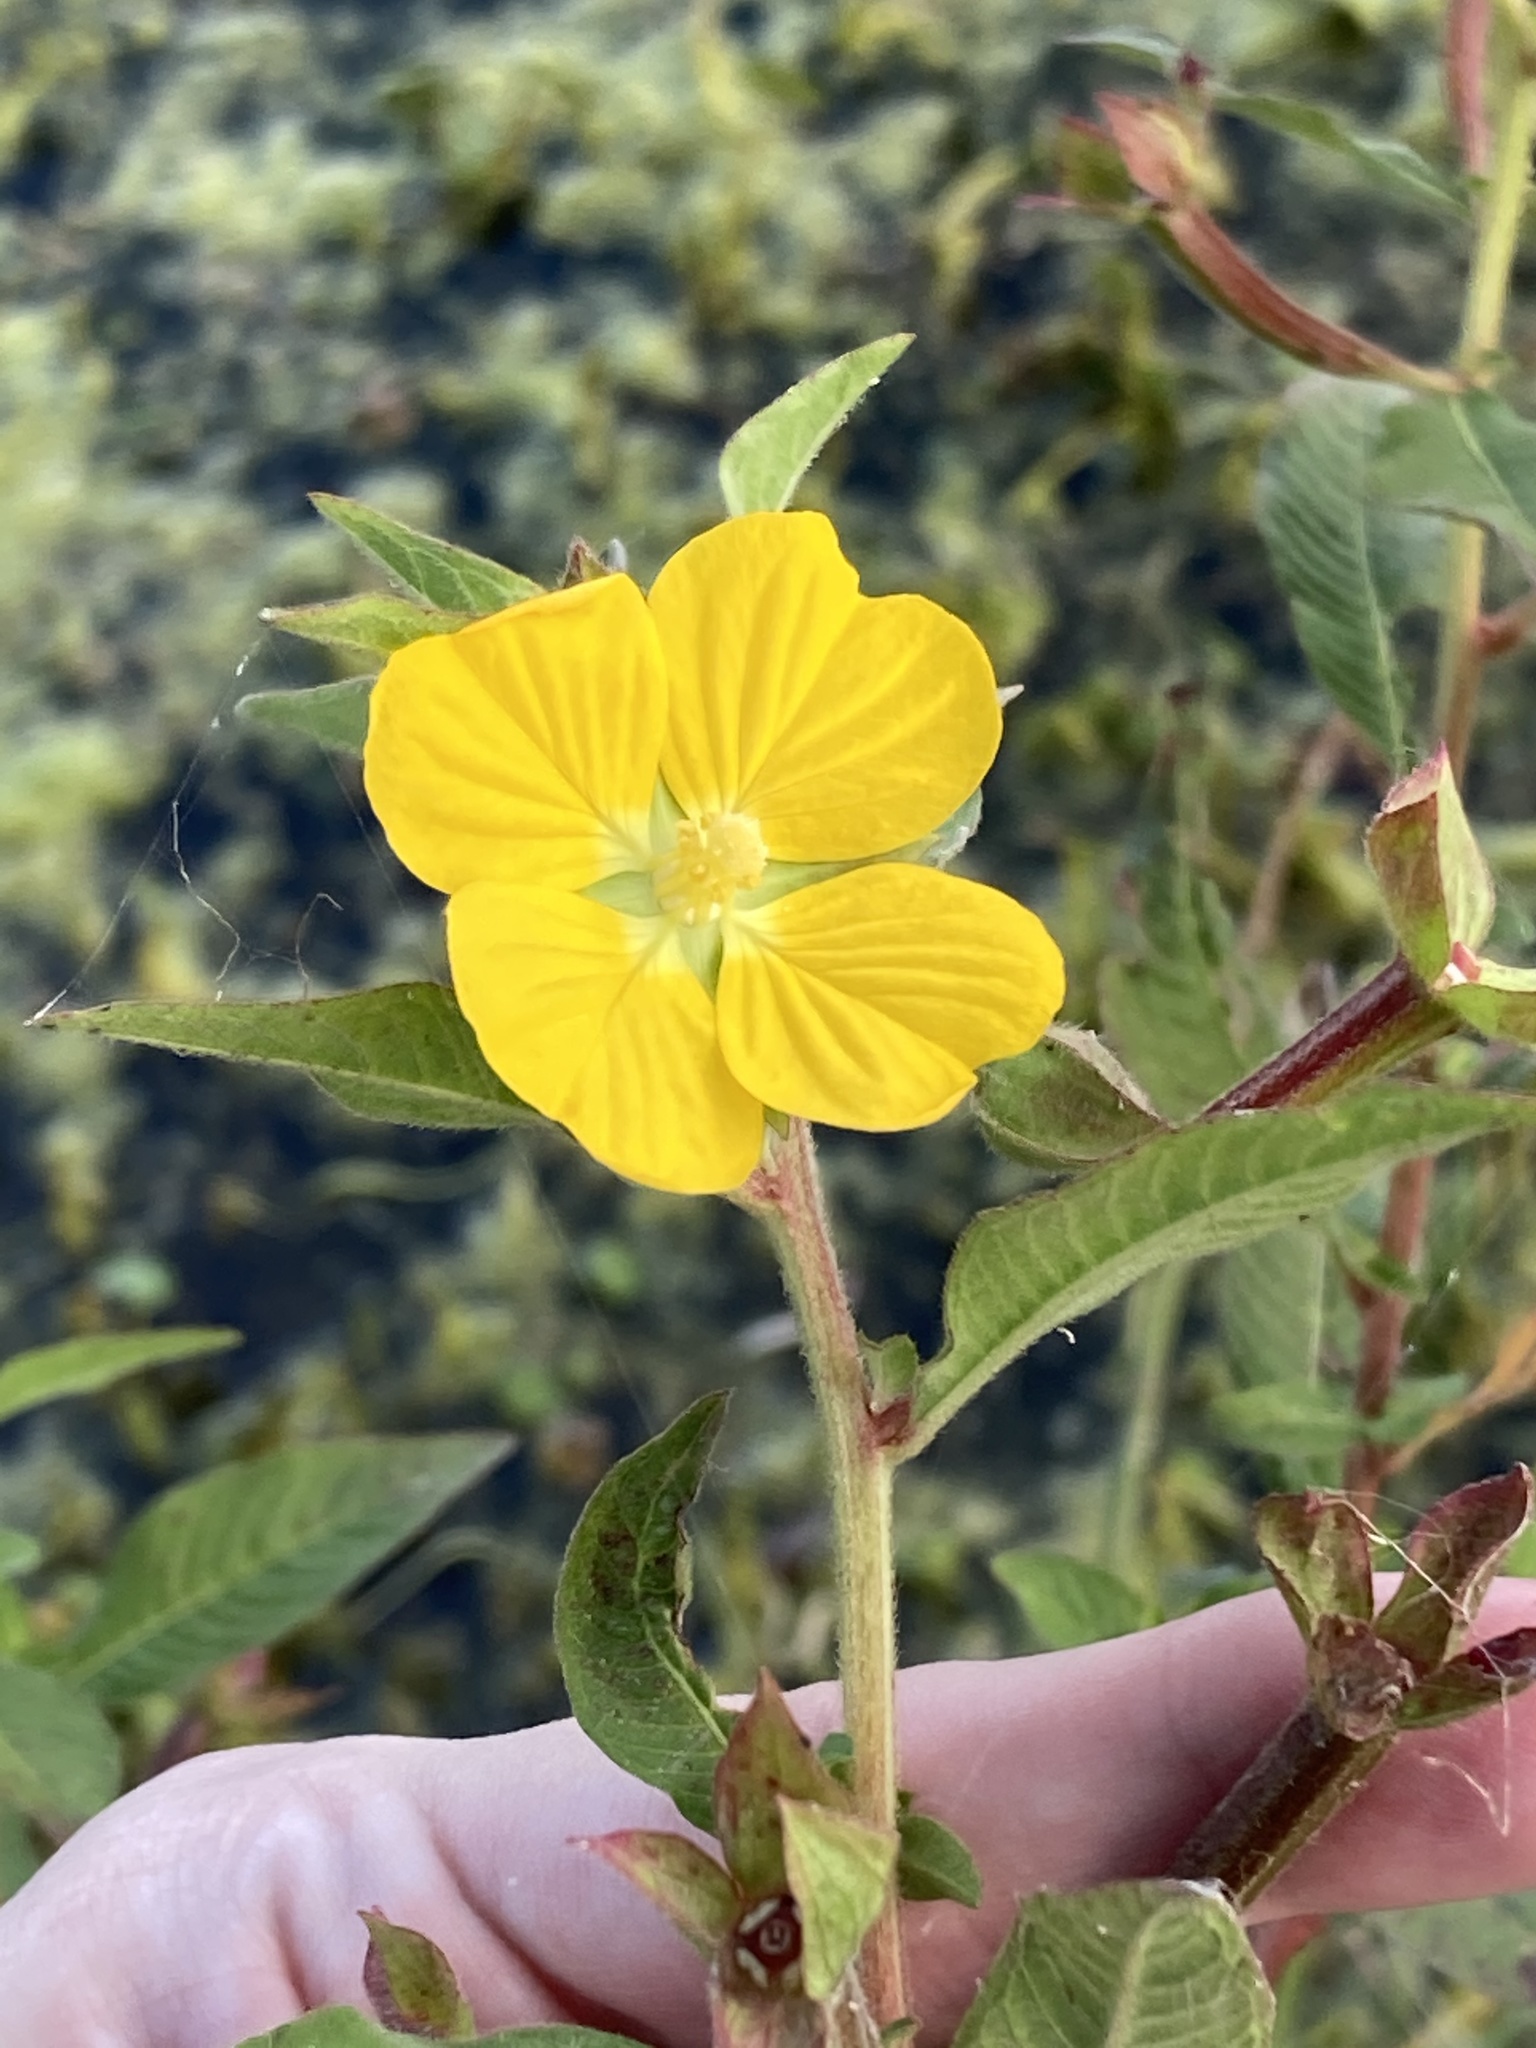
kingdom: Plantae
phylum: Tracheophyta
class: Magnoliopsida
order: Myrtales
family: Onagraceae
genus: Ludwigia
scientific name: Ludwigia peruviana
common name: Peruvian primrose-willow
